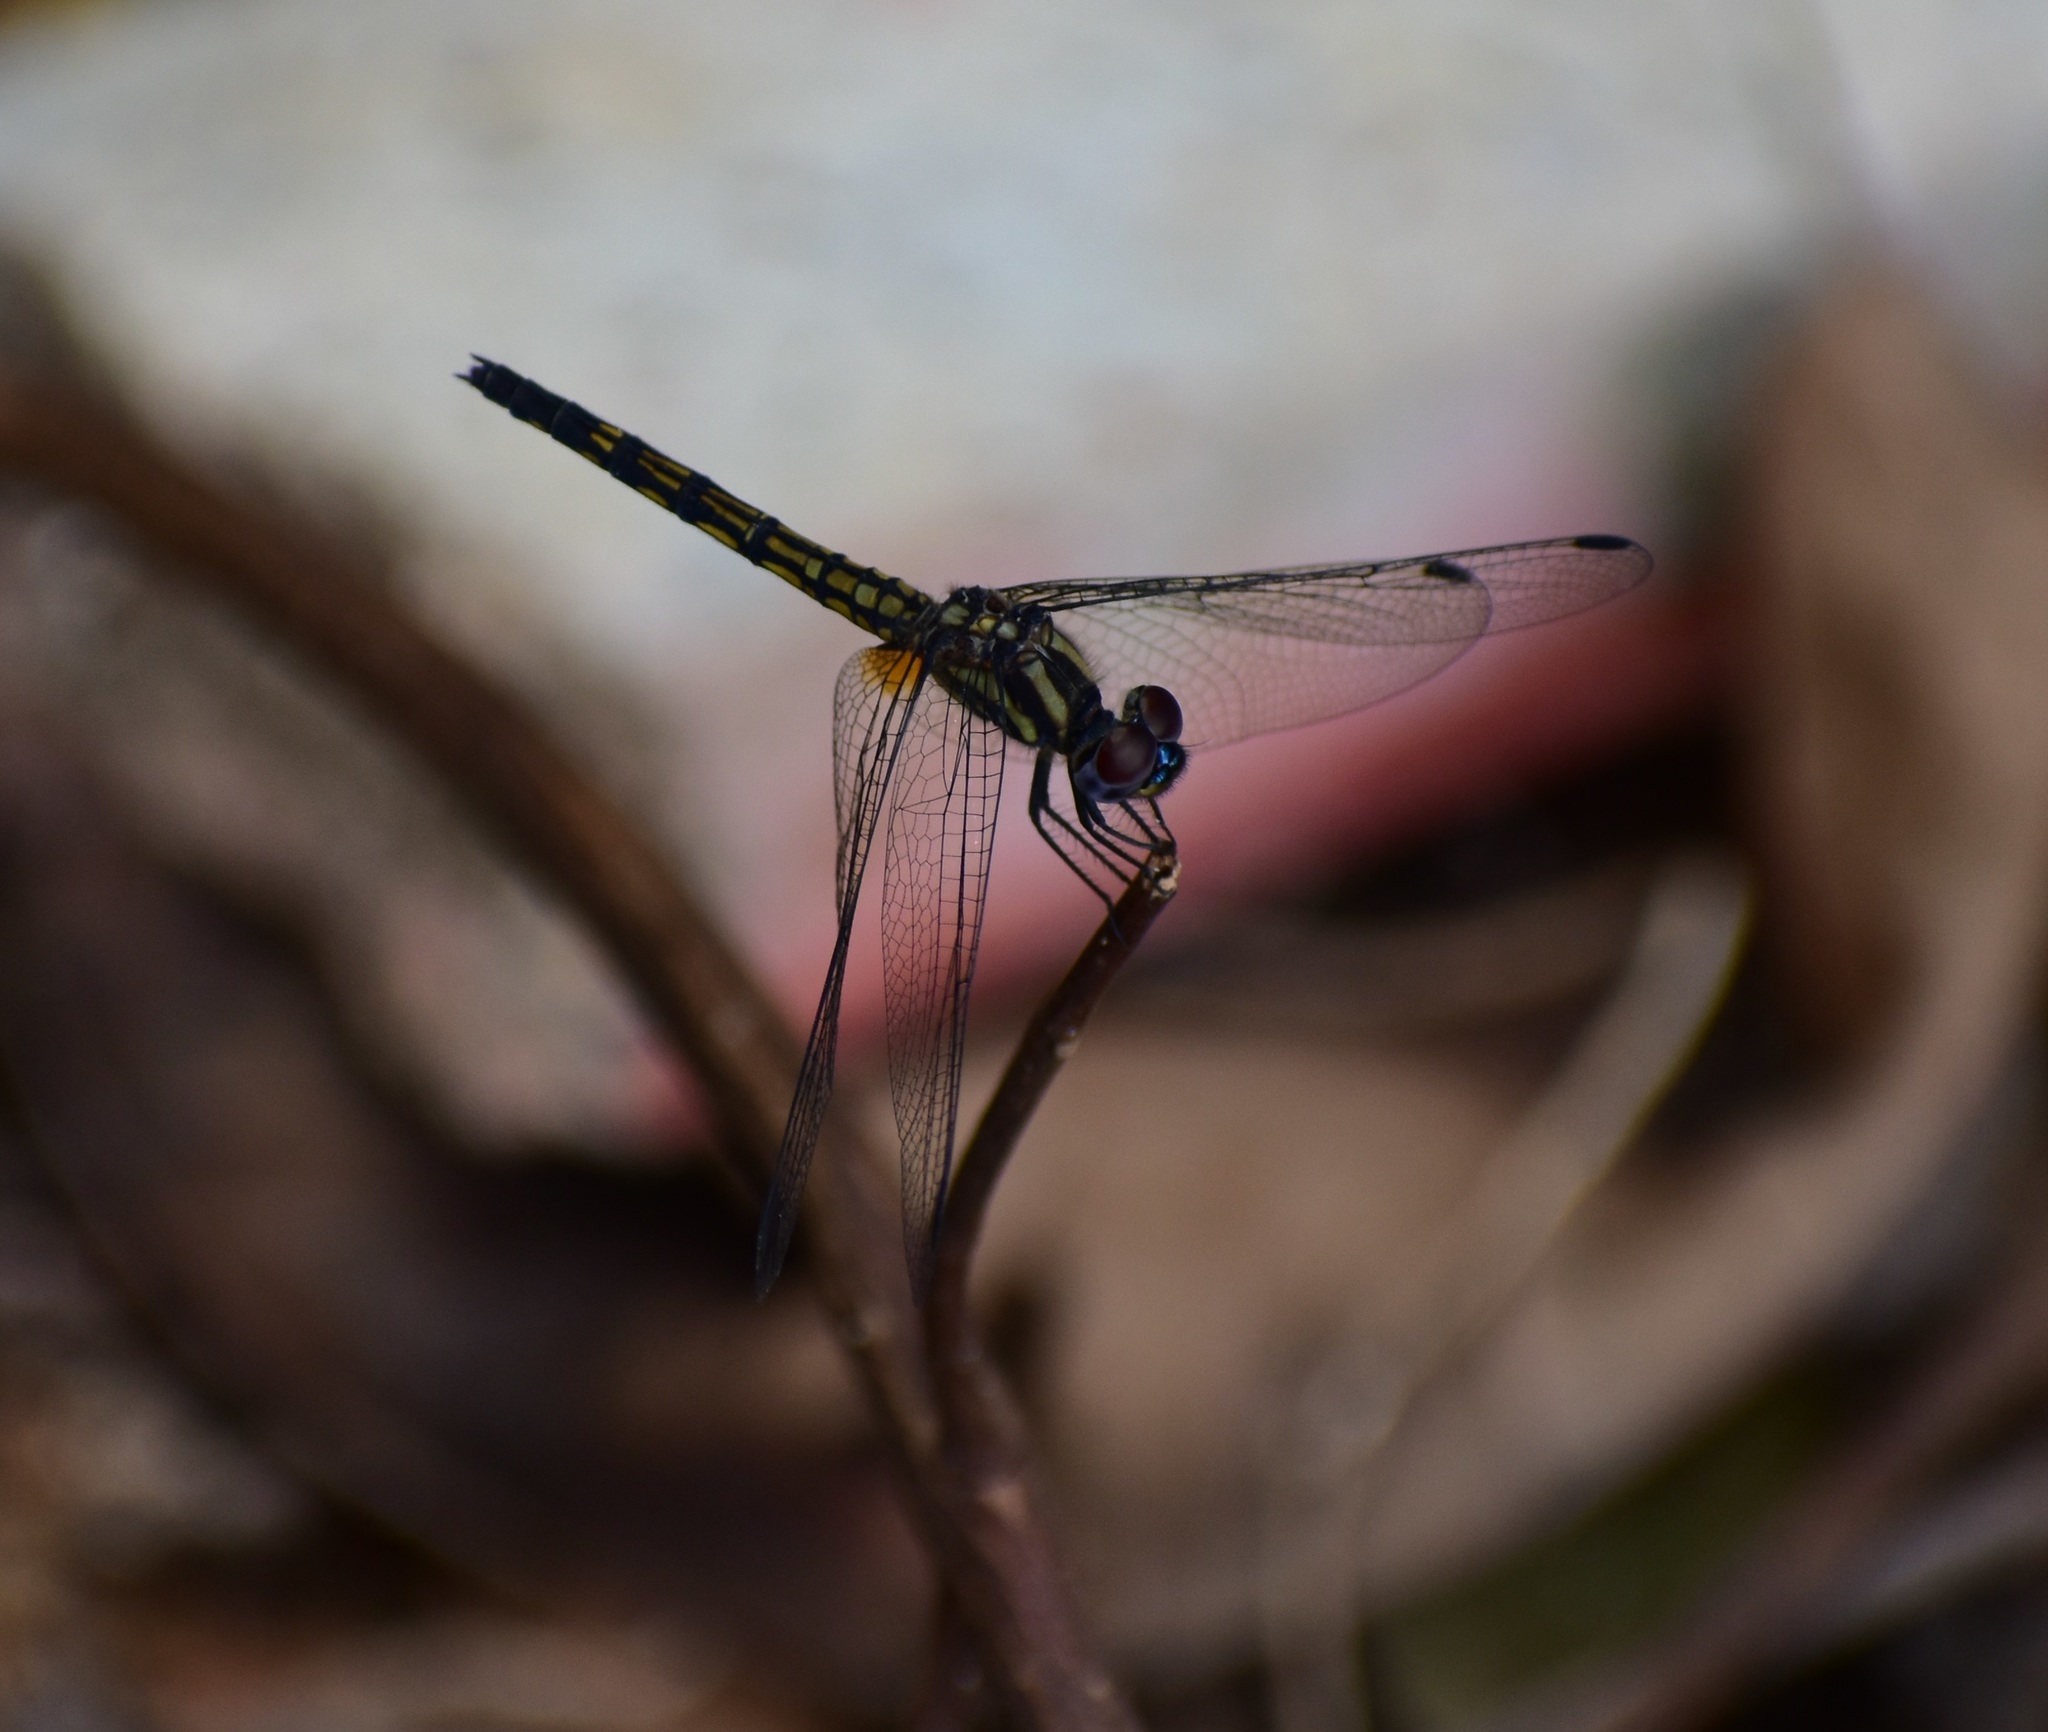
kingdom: Animalia
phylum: Arthropoda
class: Insecta
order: Odonata
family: Libellulidae
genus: Trithemis
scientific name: Trithemis festiva
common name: Indigo dropwing
